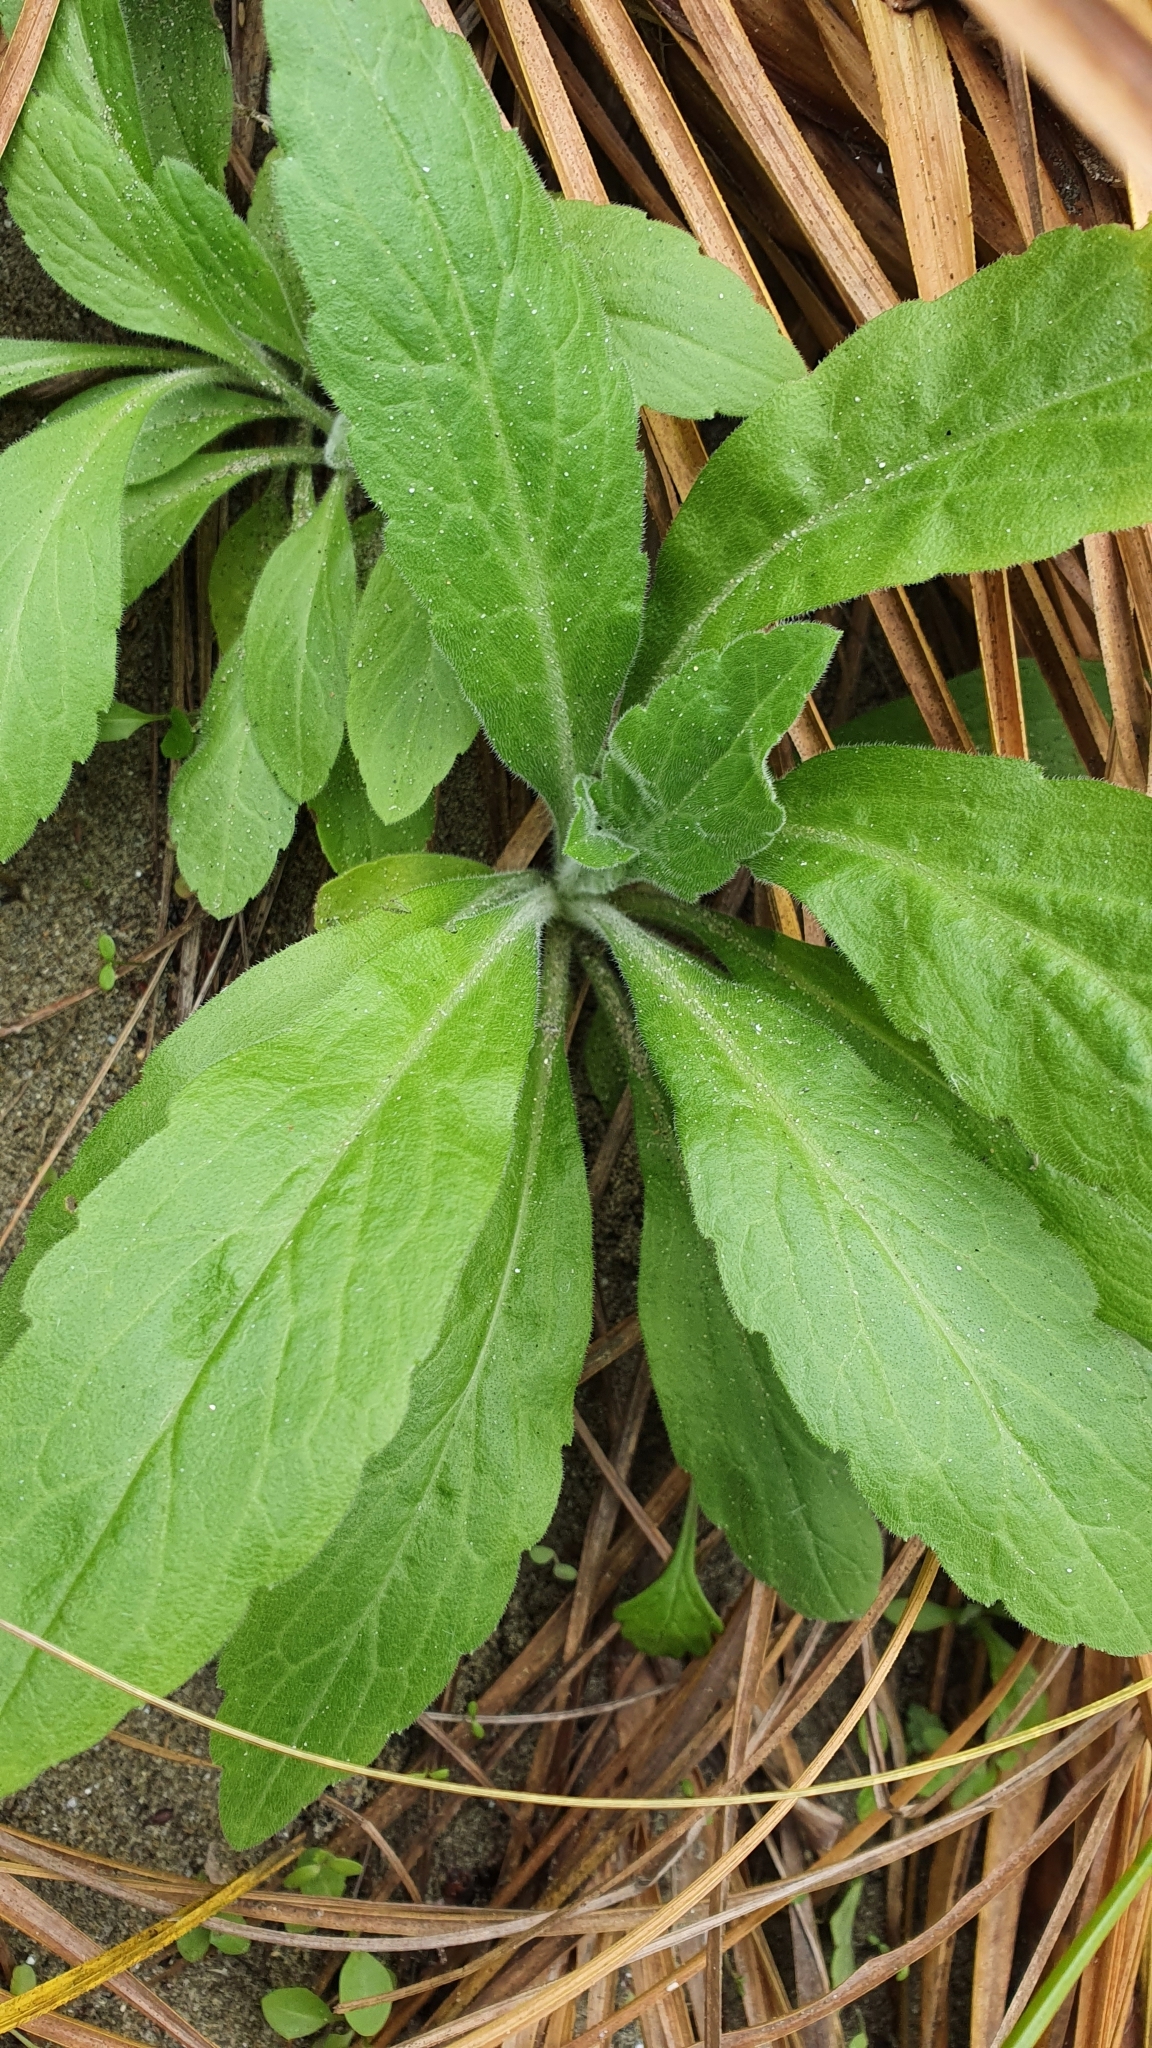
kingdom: Plantae
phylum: Tracheophyta
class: Magnoliopsida
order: Asterales
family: Asteraceae
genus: Erigeron
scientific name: Erigeron sumatrensis
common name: Daisy
